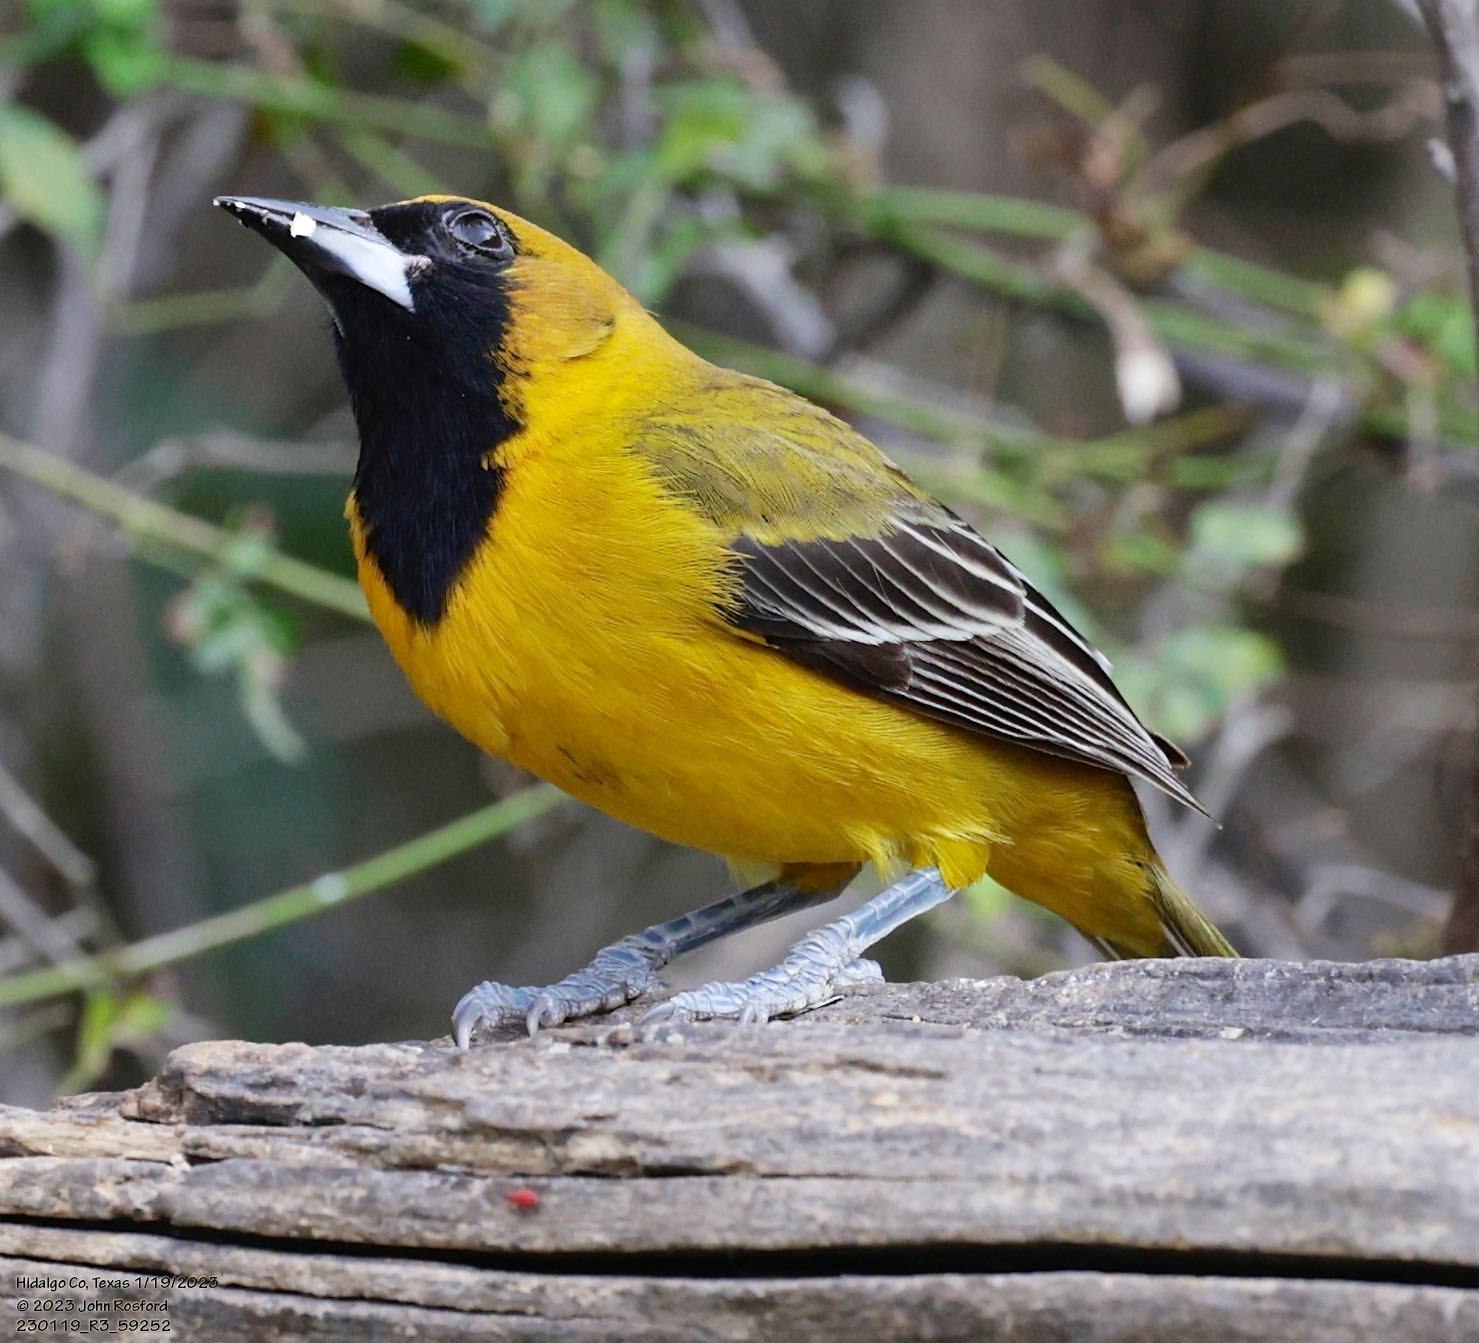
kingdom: Animalia
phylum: Chordata
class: Aves
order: Passeriformes
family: Icteridae
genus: Icterus
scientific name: Icterus
